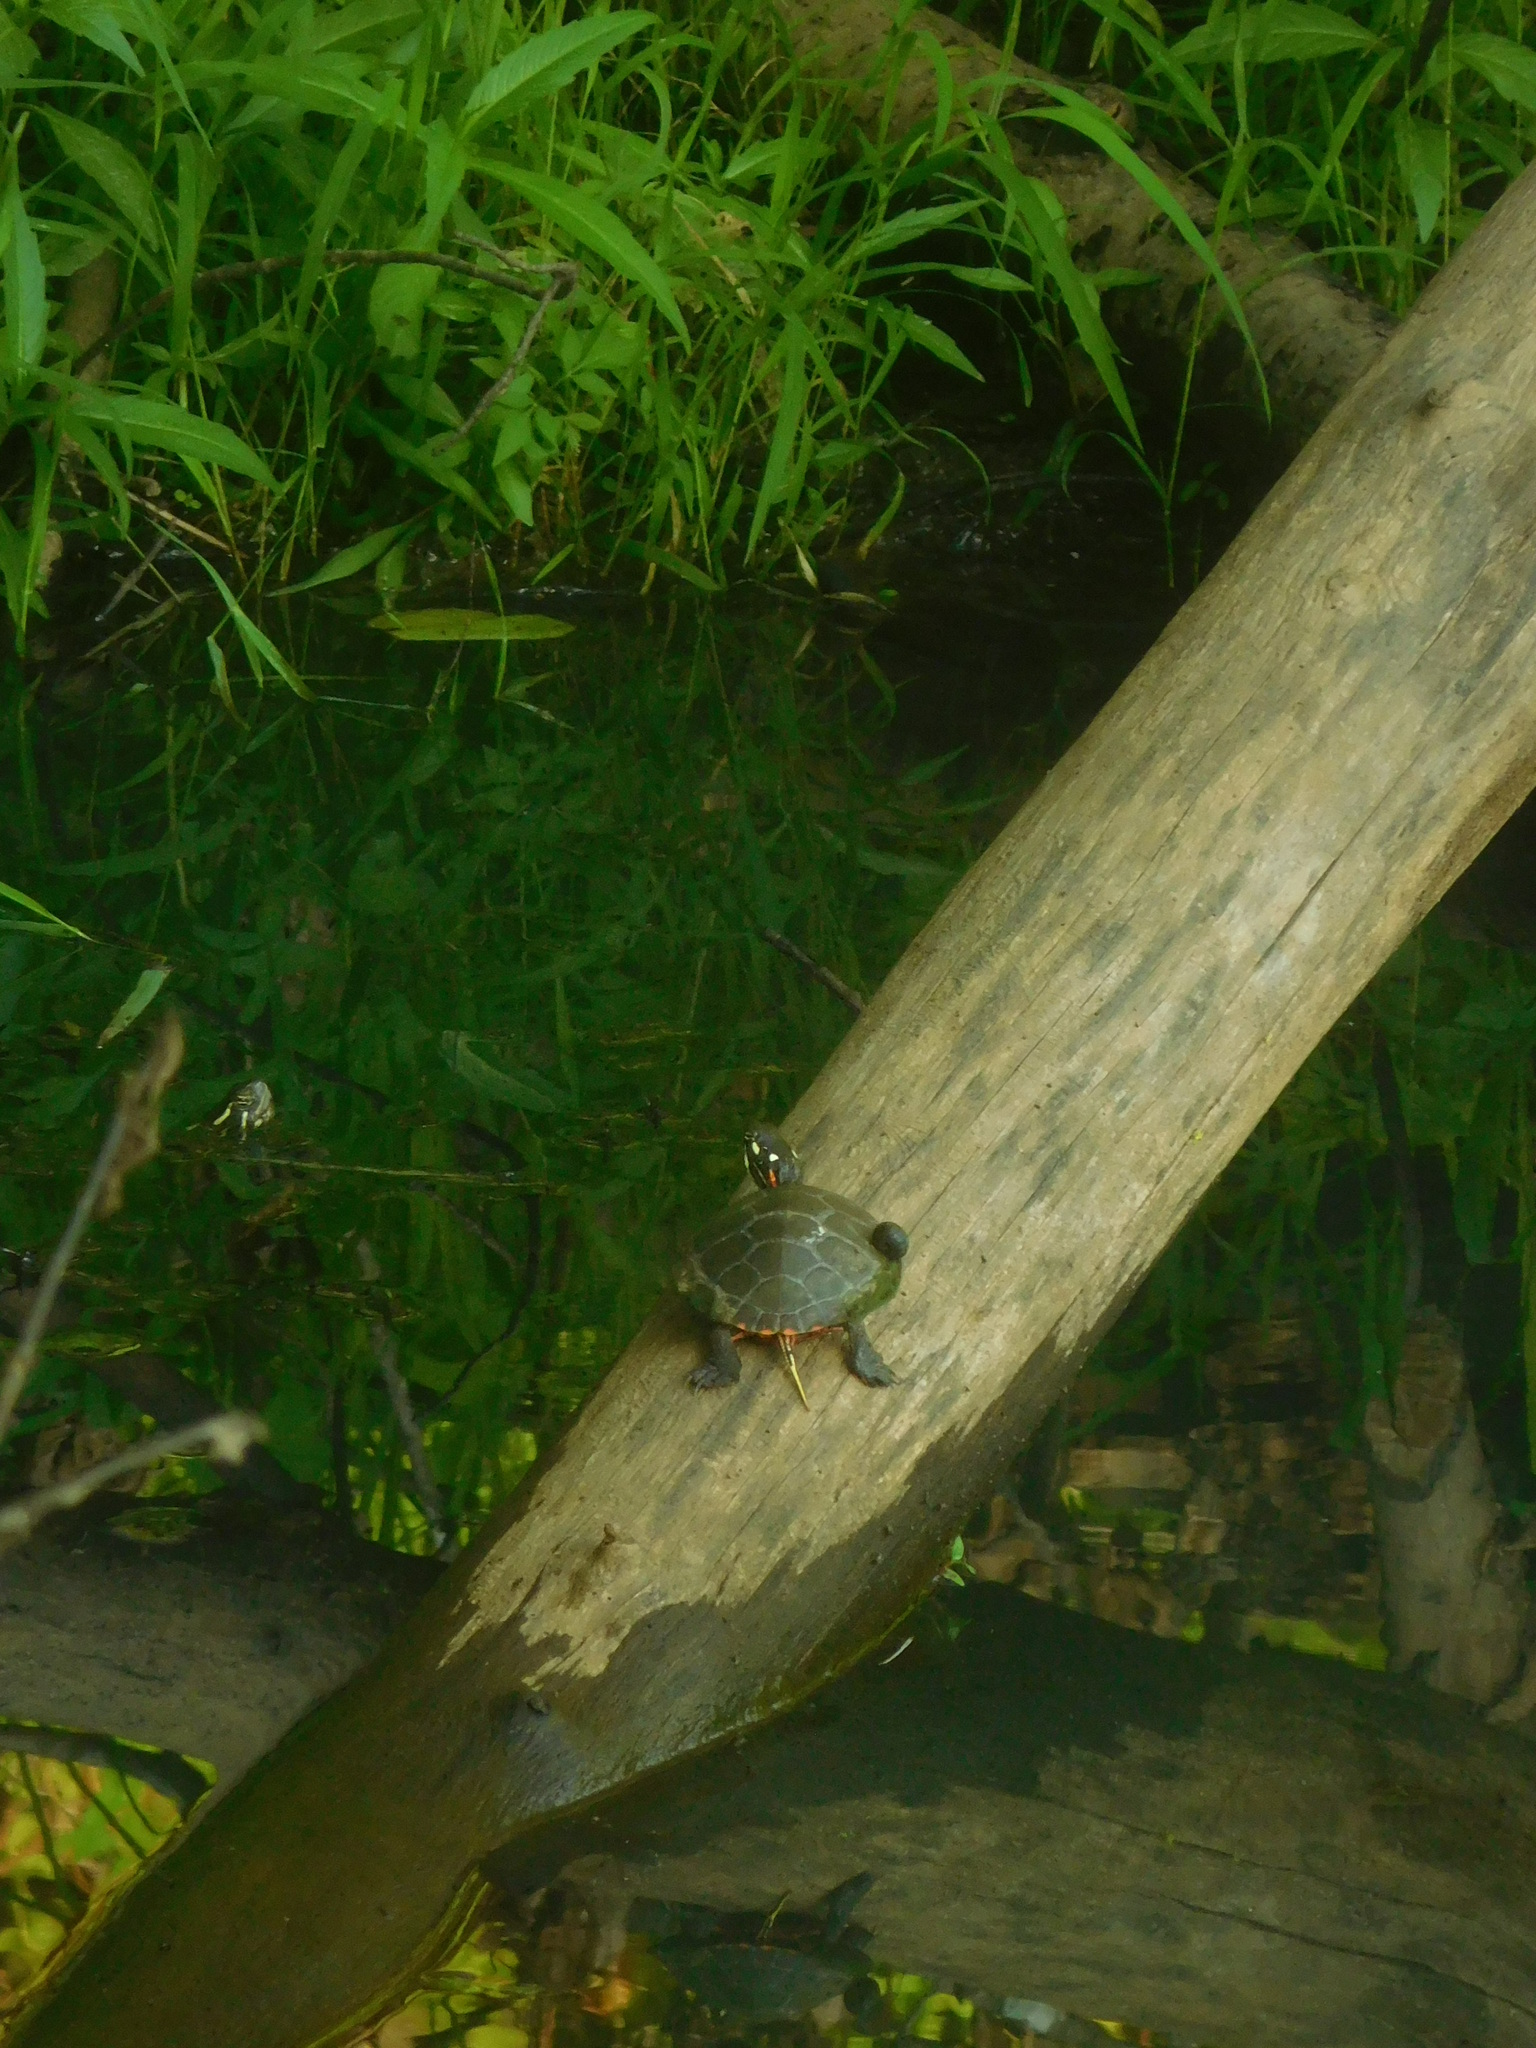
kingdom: Animalia
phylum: Chordata
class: Testudines
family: Emydidae
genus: Chrysemys
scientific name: Chrysemys picta
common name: Painted turtle
